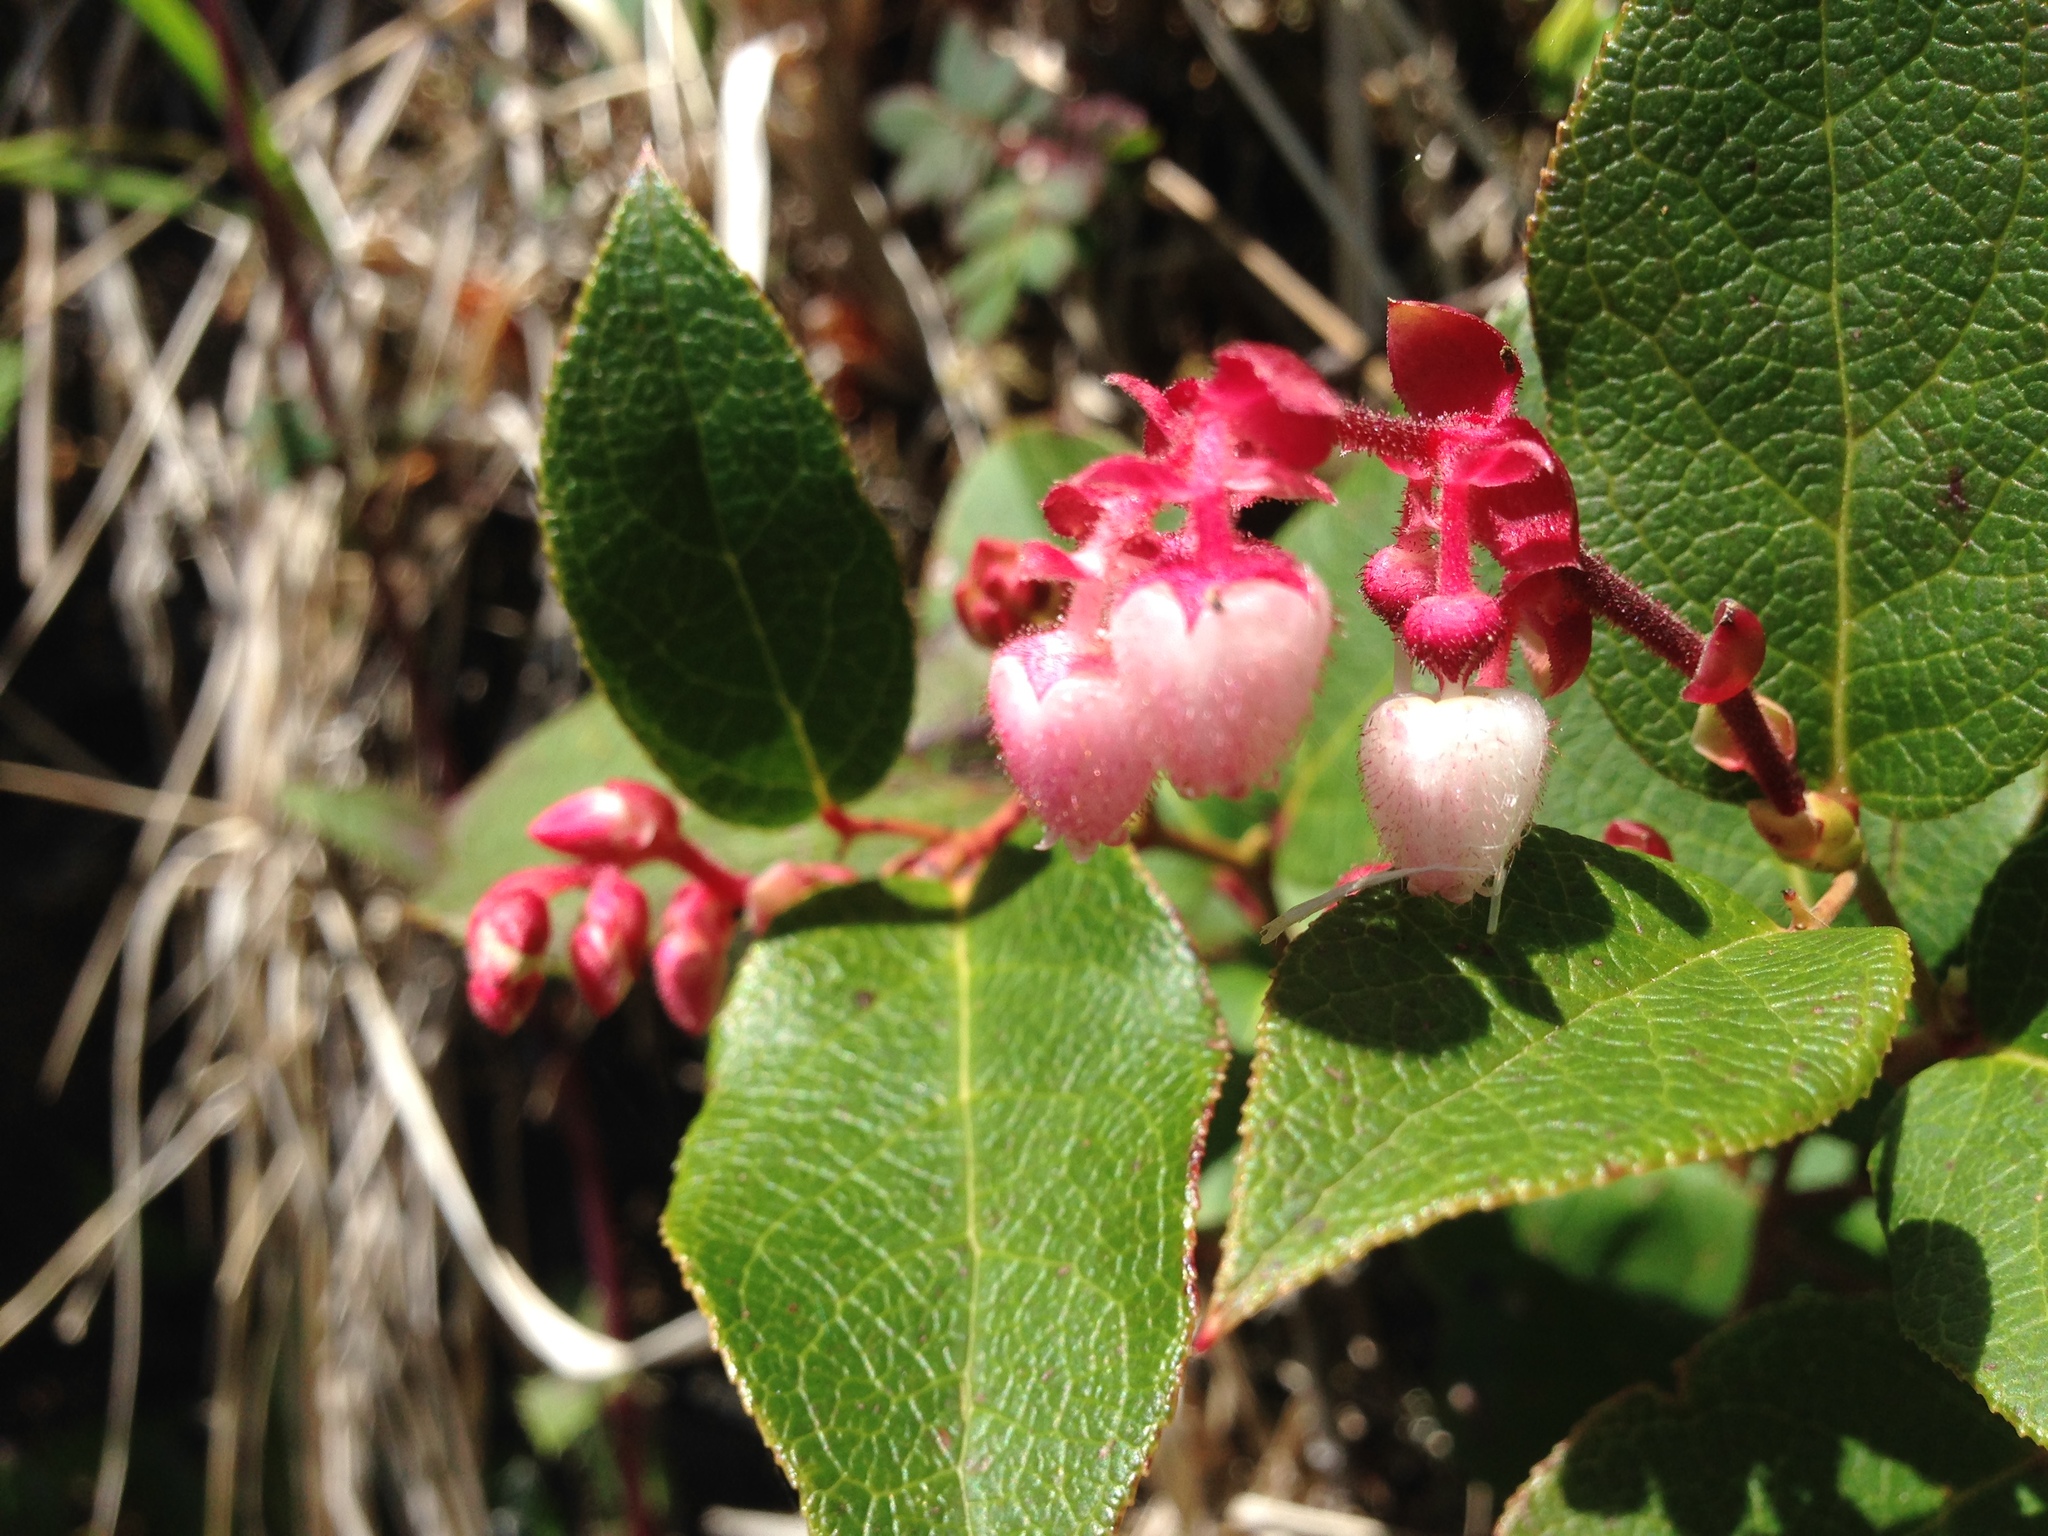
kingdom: Plantae
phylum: Tracheophyta
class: Magnoliopsida
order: Ericales
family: Ericaceae
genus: Gaultheria
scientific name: Gaultheria shallon
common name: Shallon
